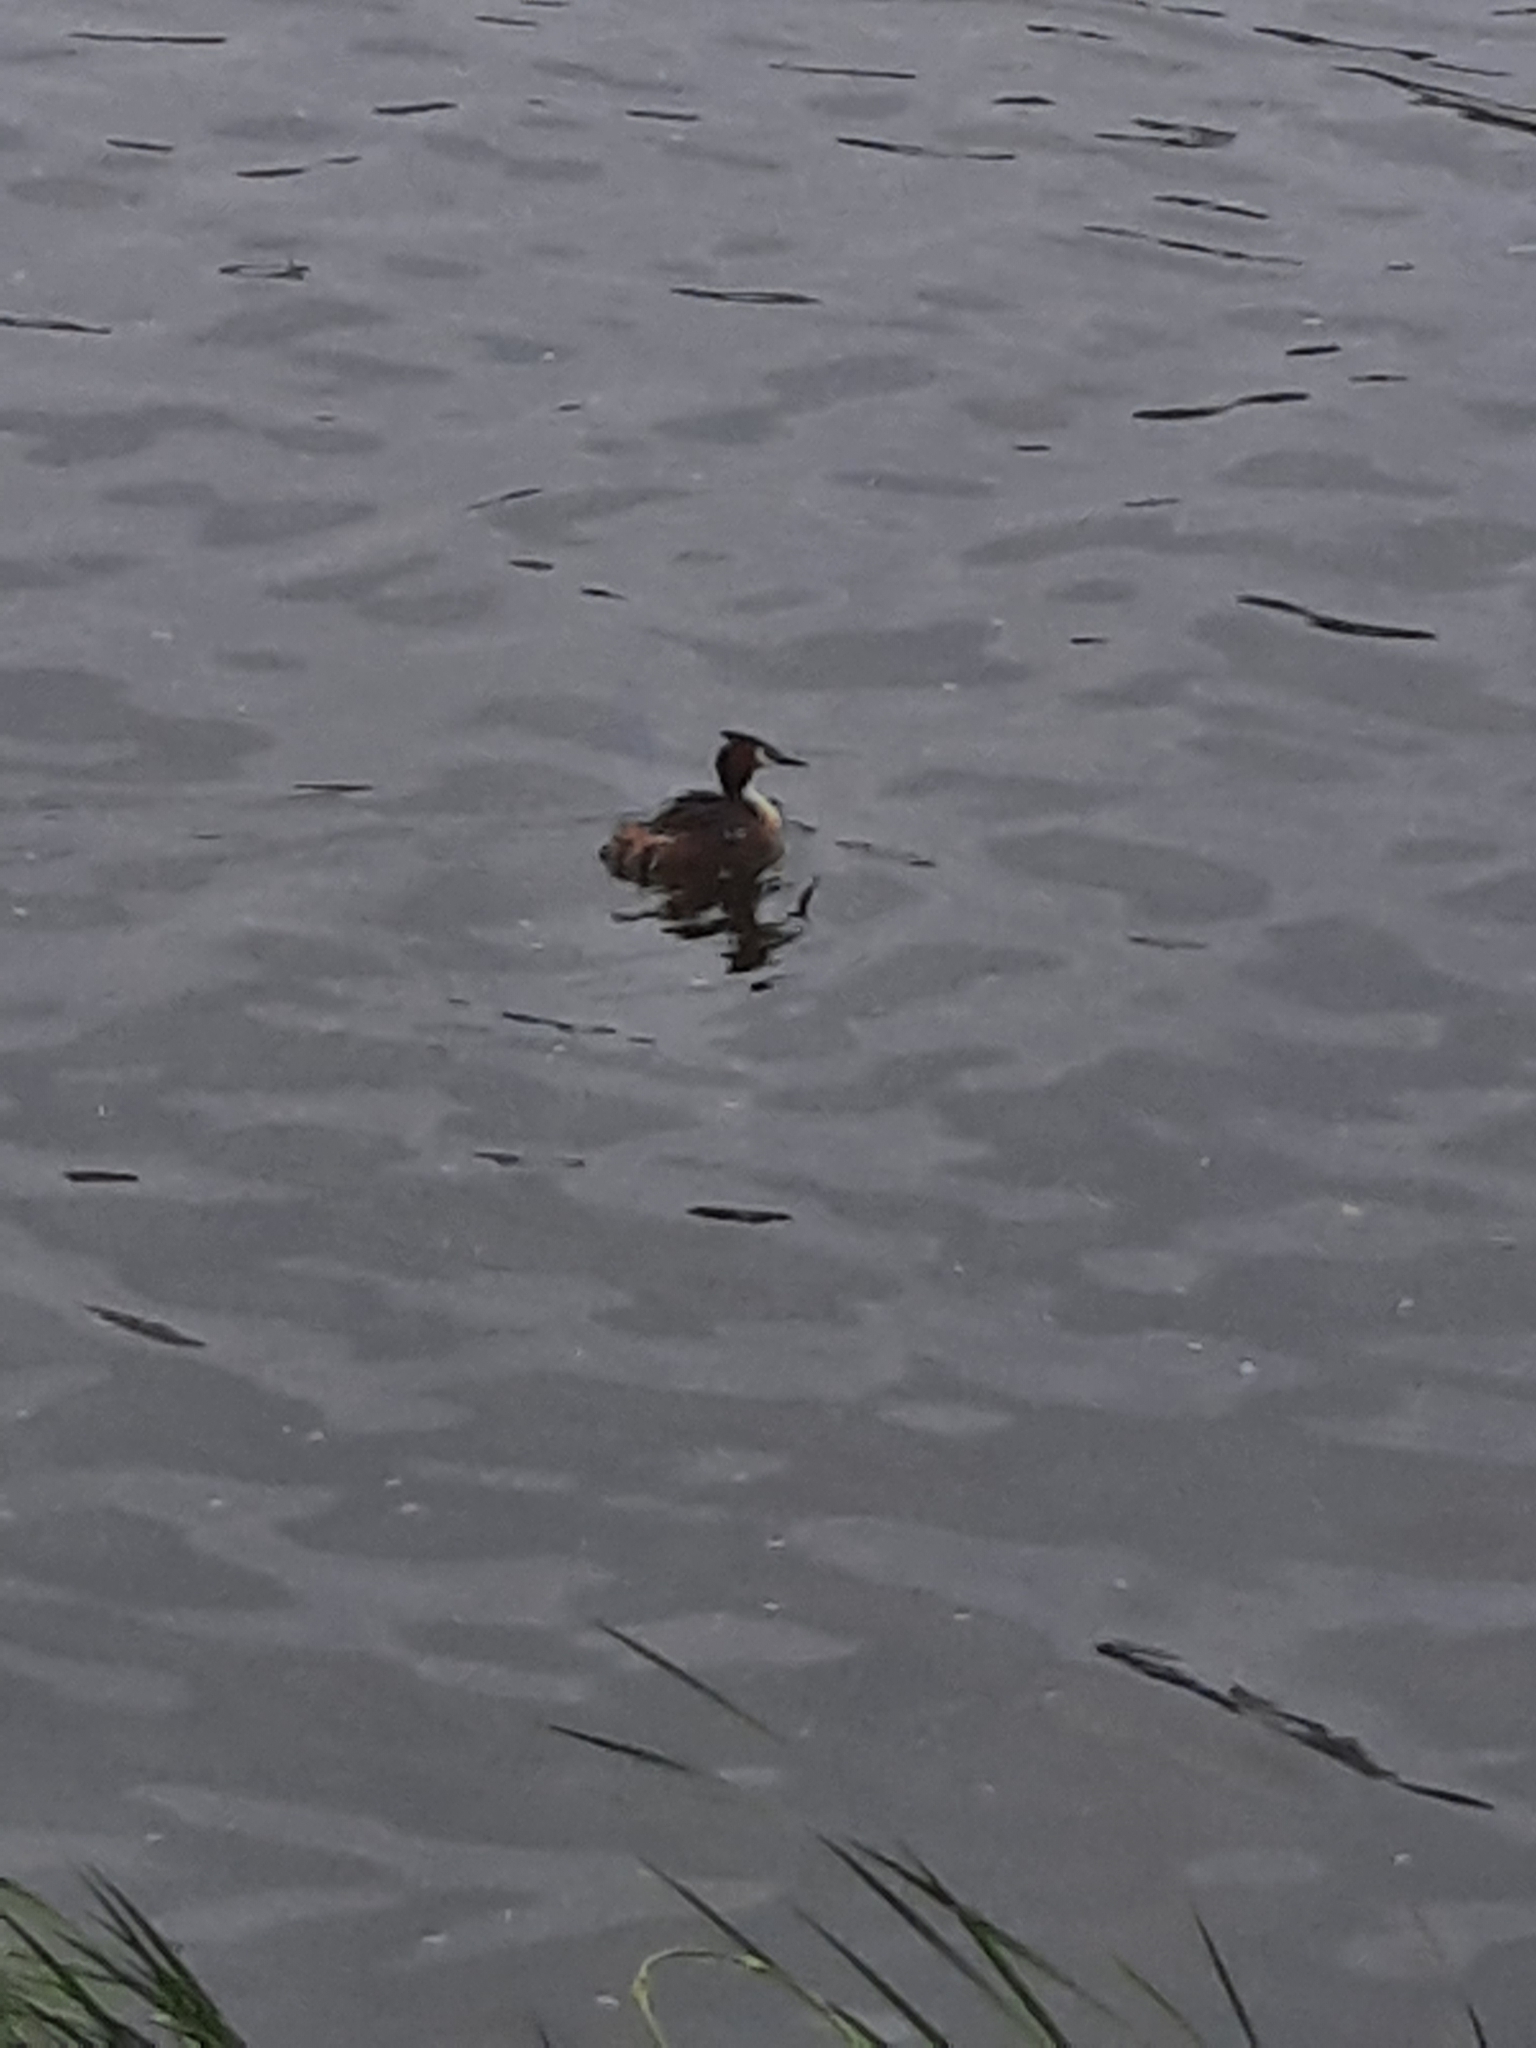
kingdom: Animalia
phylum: Chordata
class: Aves
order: Podicipediformes
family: Podicipedidae
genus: Podiceps
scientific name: Podiceps cristatus
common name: Great crested grebe
